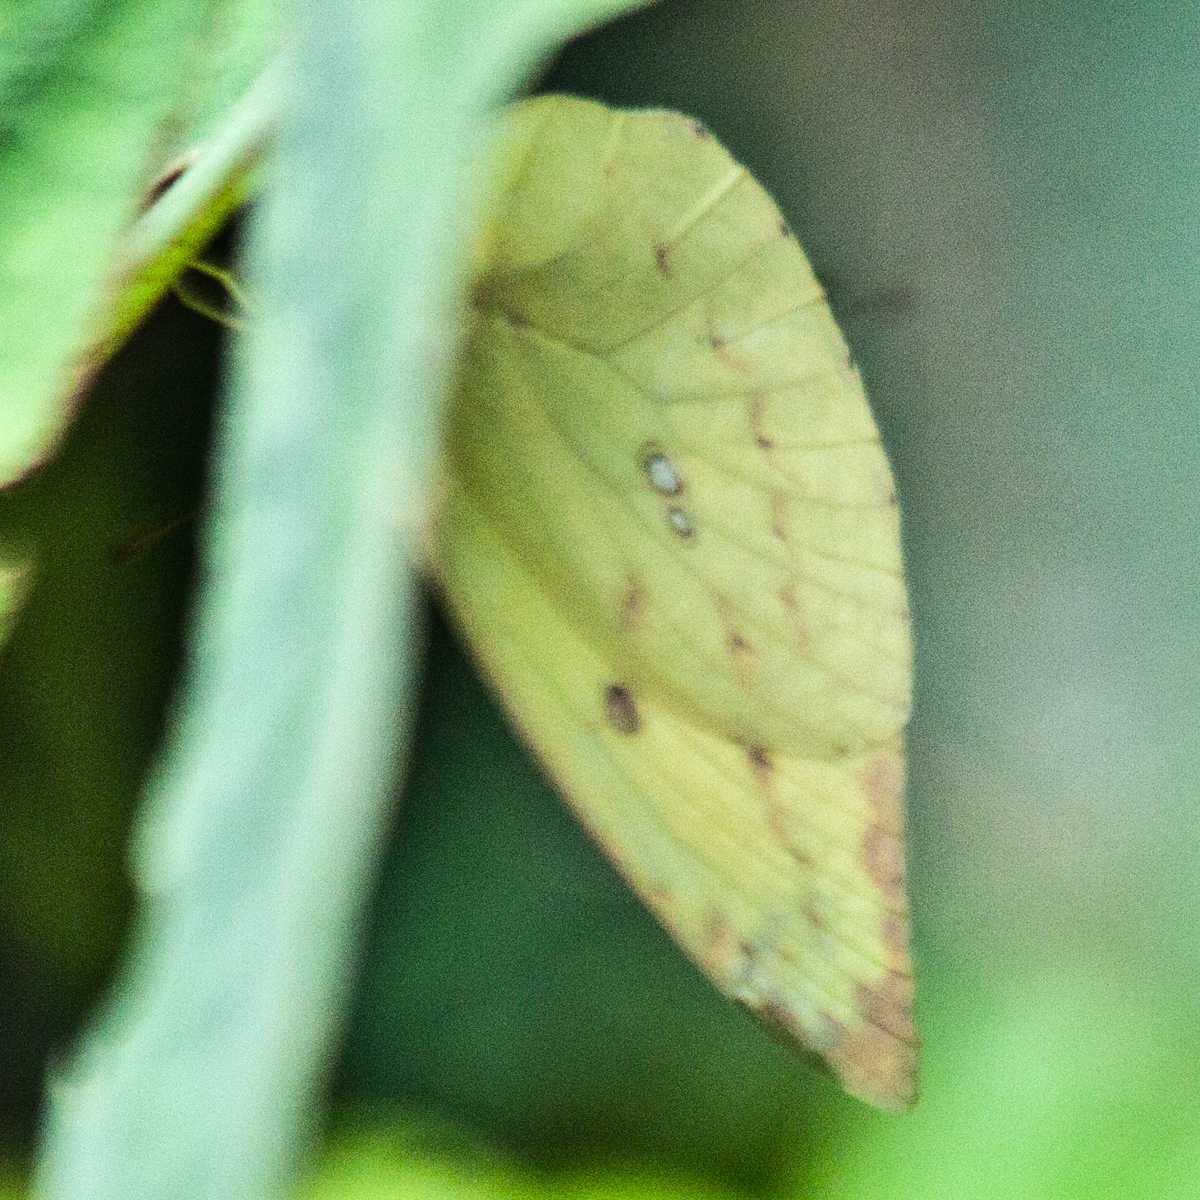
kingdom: Animalia
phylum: Arthropoda
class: Insecta
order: Lepidoptera
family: Pieridae
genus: Catopsilia
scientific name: Catopsilia pomona
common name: Common emigrant
